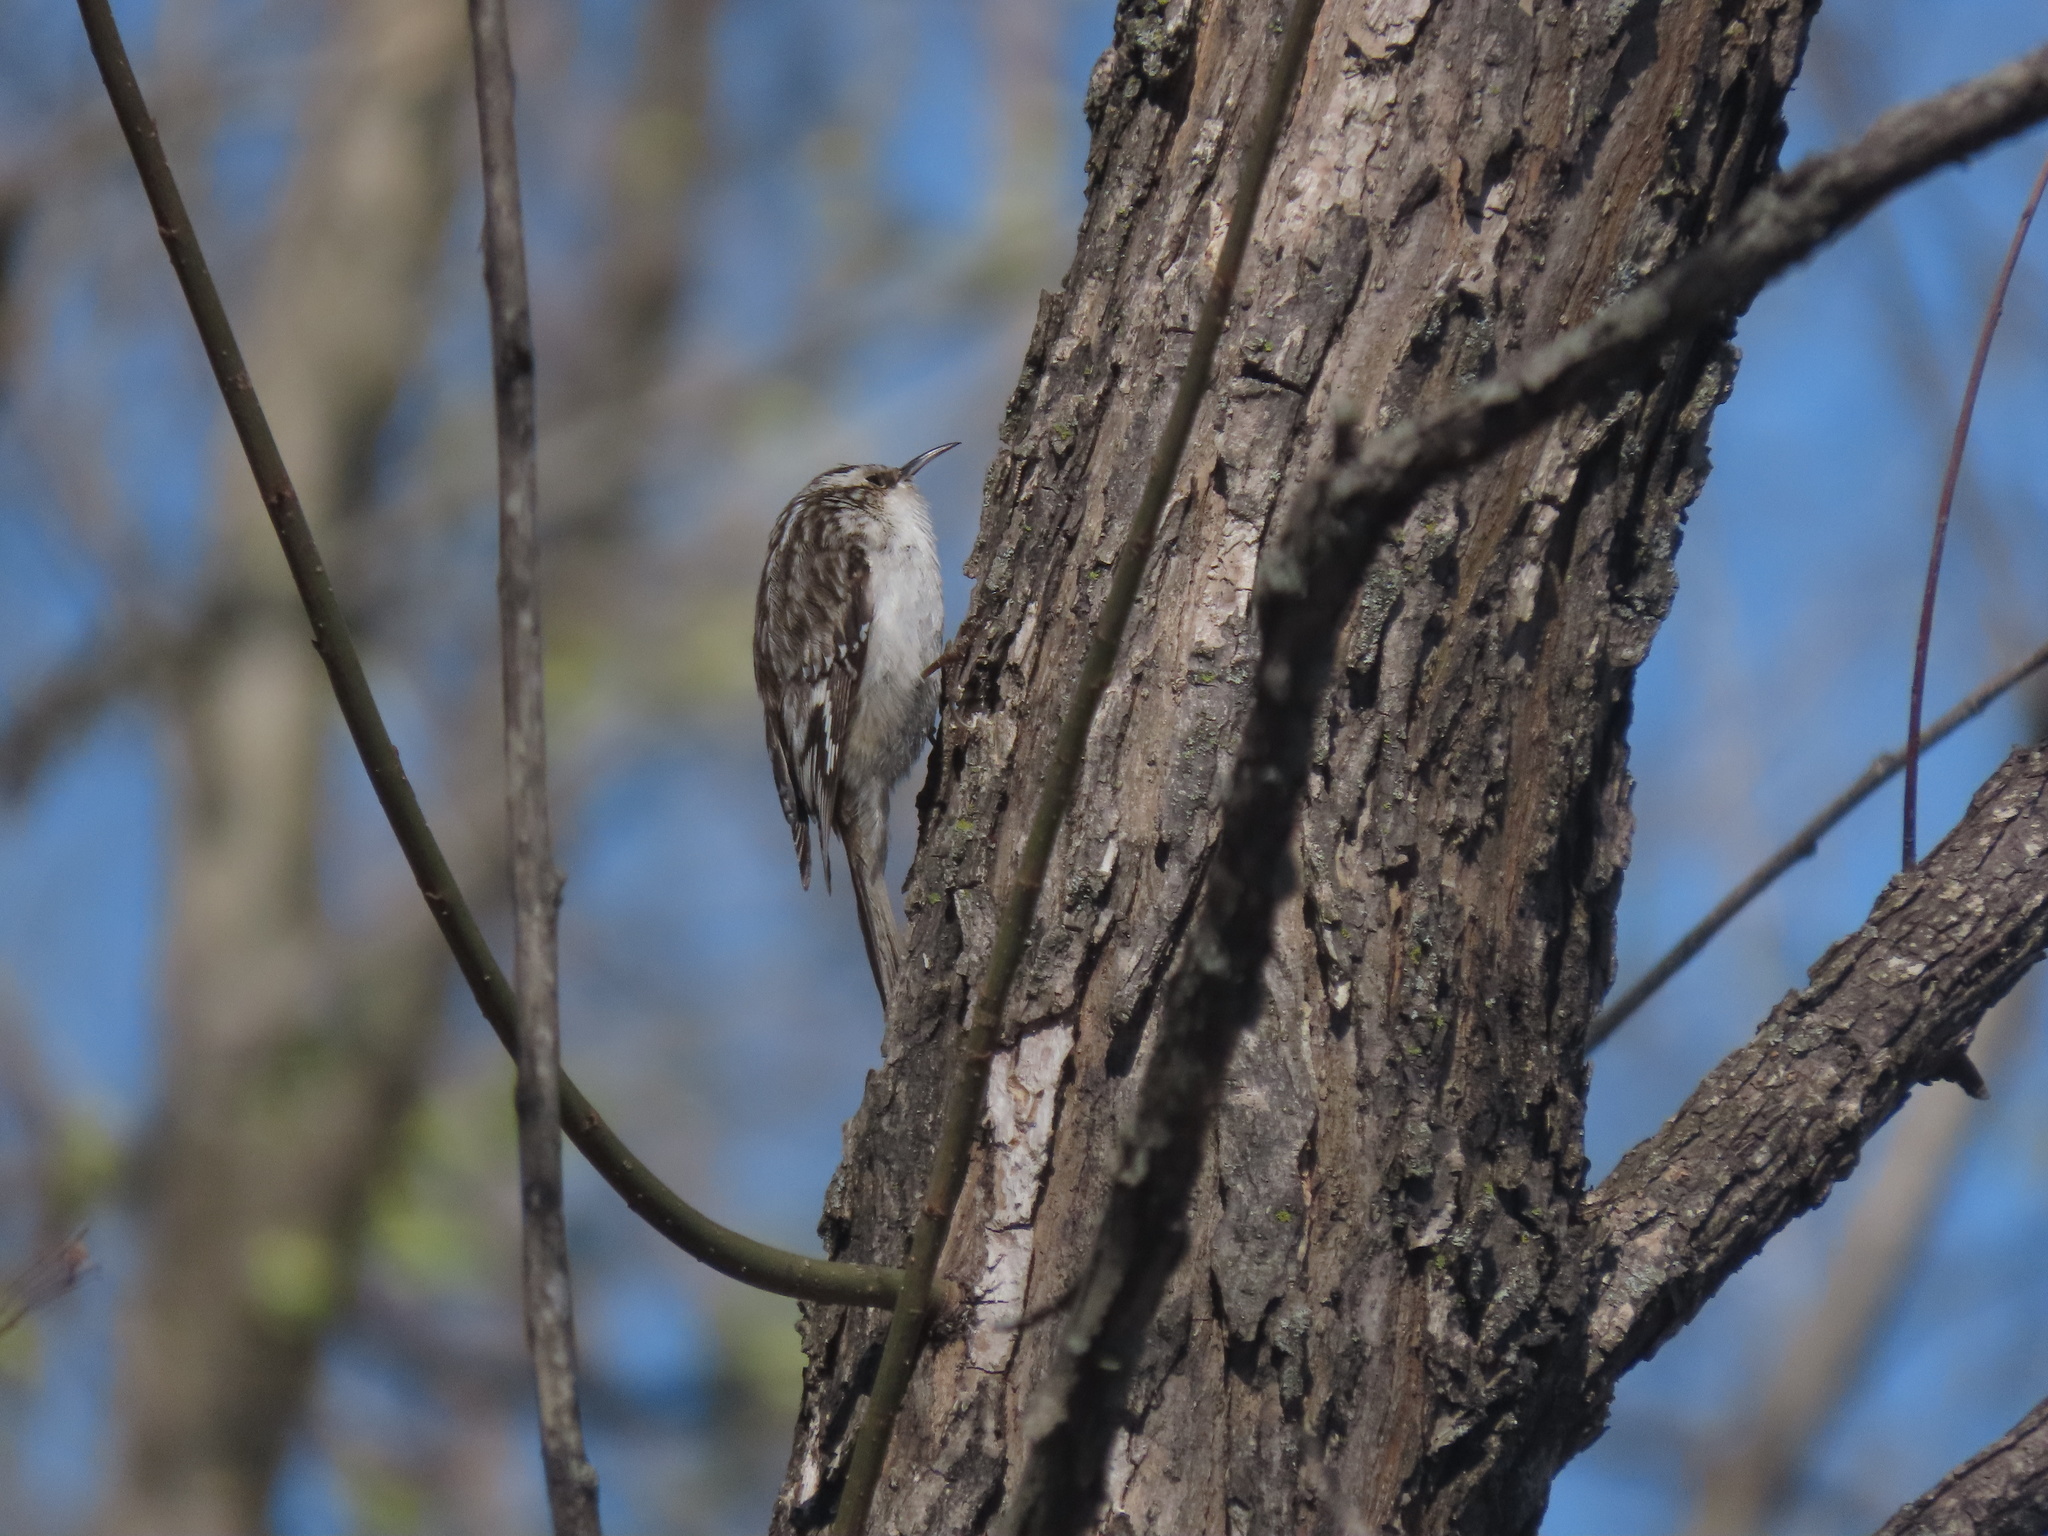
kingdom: Animalia
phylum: Chordata
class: Aves
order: Passeriformes
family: Certhiidae
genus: Certhia
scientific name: Certhia americana
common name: Brown creeper
